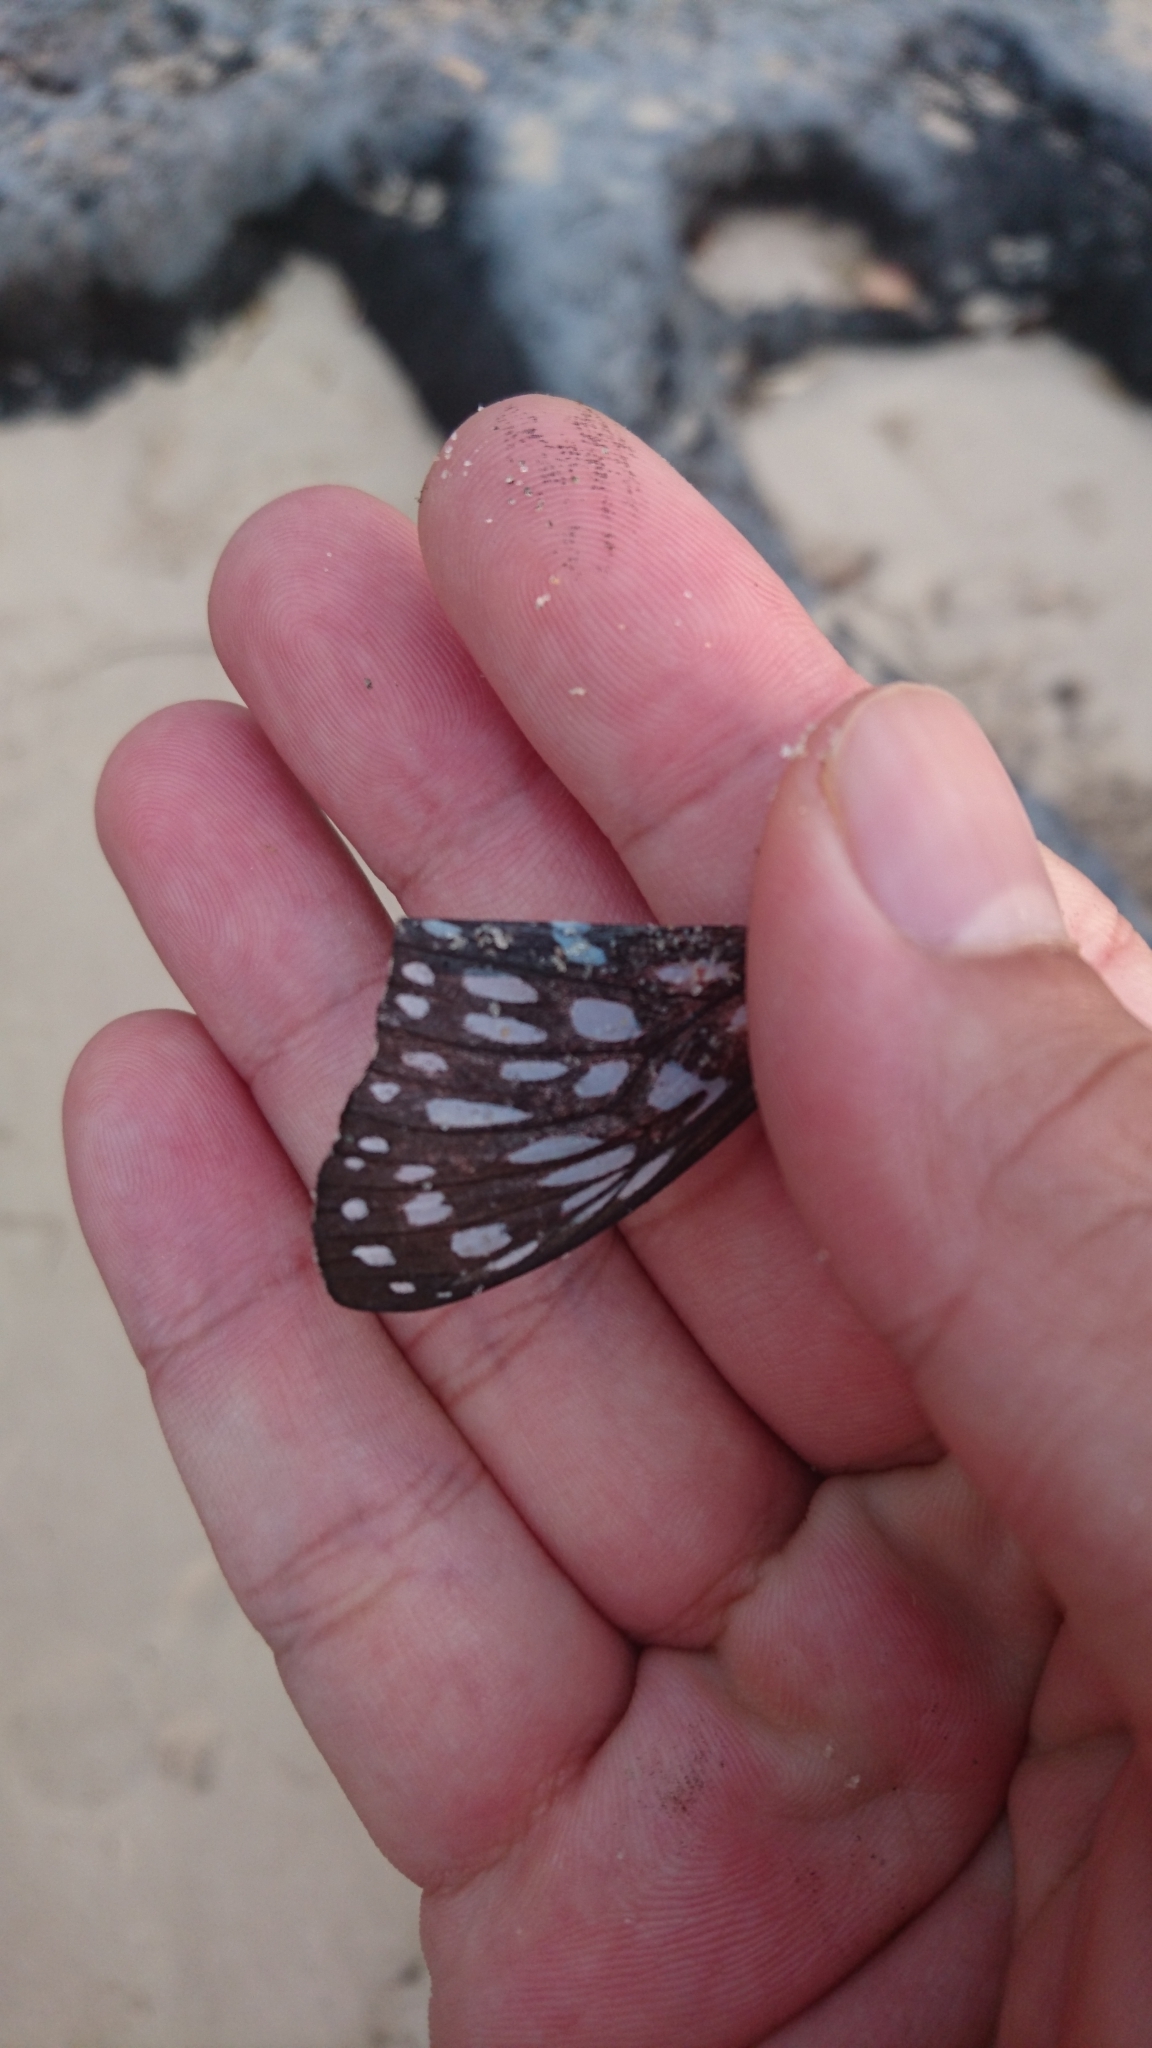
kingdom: Animalia
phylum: Arthropoda
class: Insecta
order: Lepidoptera
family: Nymphalidae
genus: Tirumala
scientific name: Tirumala hamata
